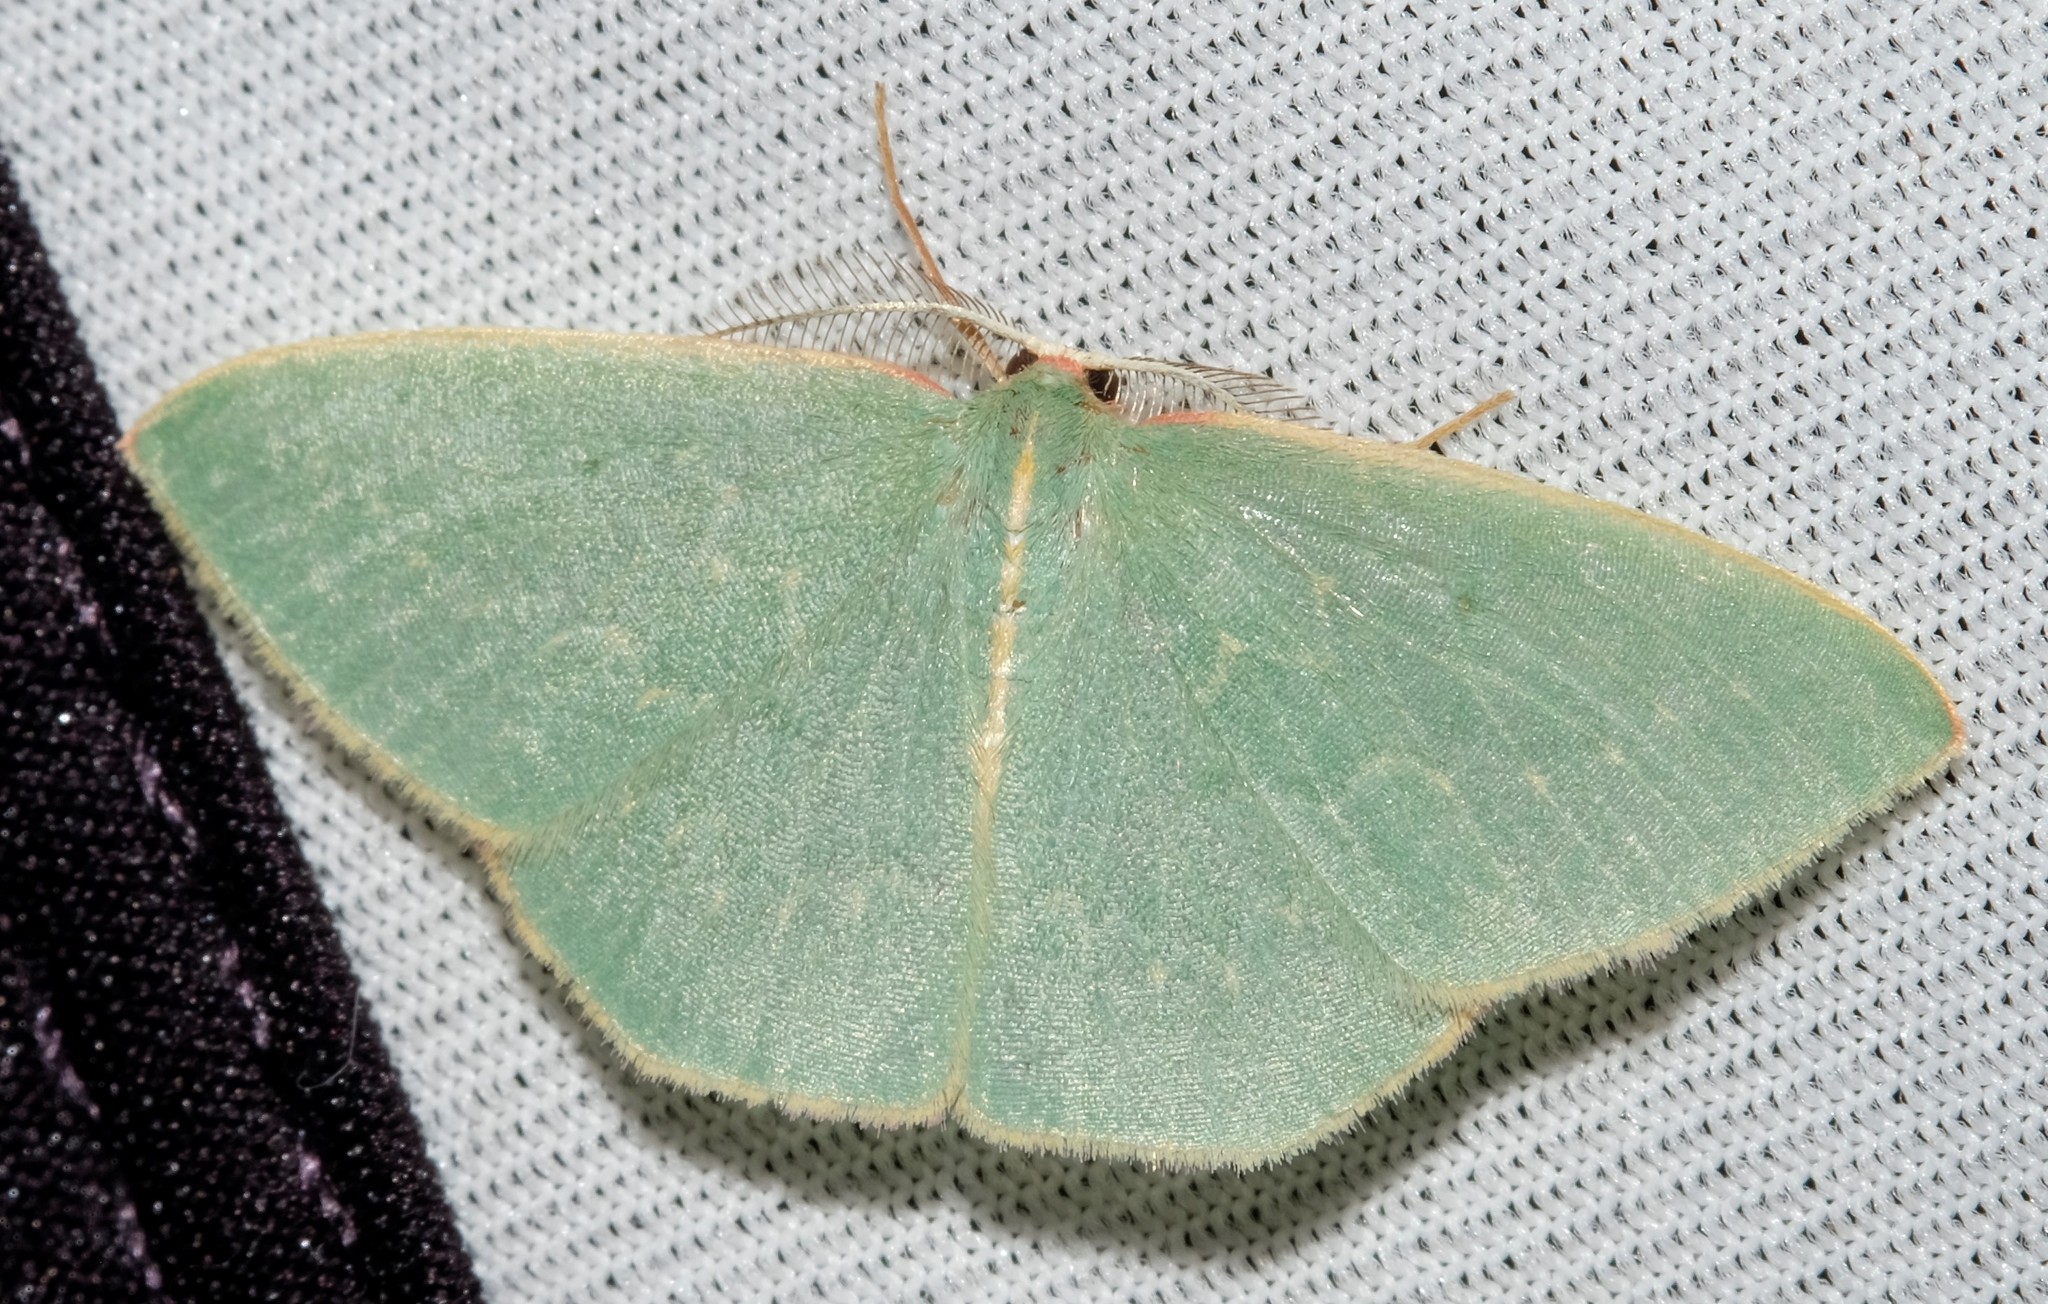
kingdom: Animalia
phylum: Arthropoda
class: Insecta
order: Lepidoptera
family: Geometridae
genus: Chlorocoma
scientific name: Chlorocoma melocrossa
